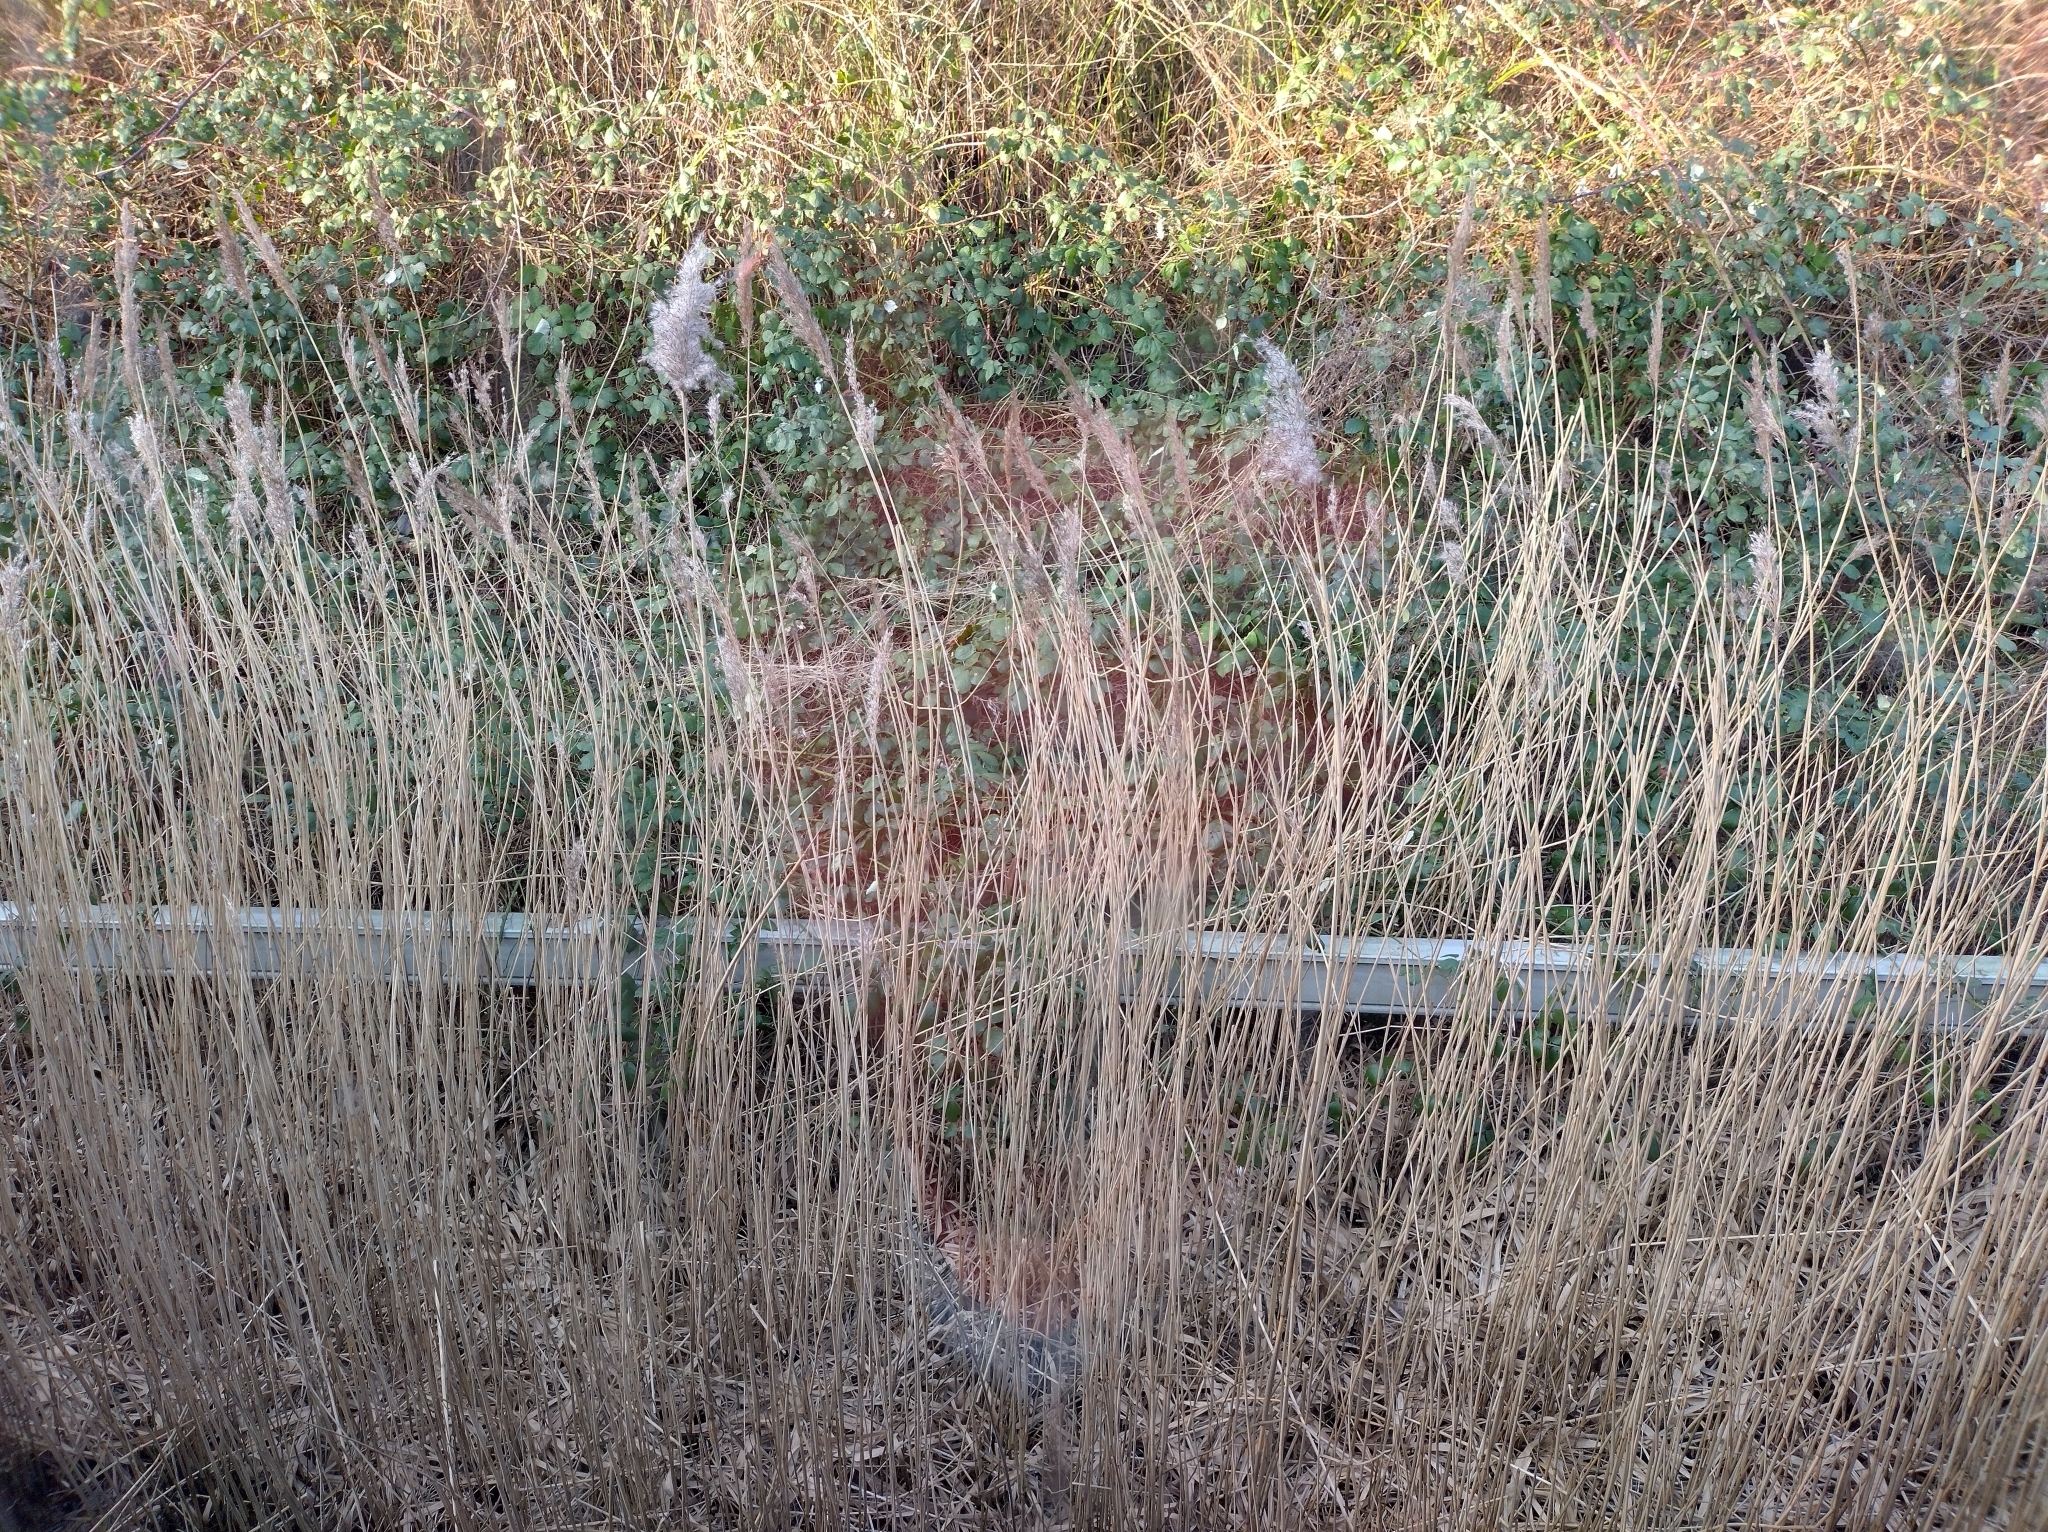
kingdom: Plantae
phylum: Tracheophyta
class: Liliopsida
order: Poales
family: Poaceae
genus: Phragmites
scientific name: Phragmites australis
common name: Common reed
